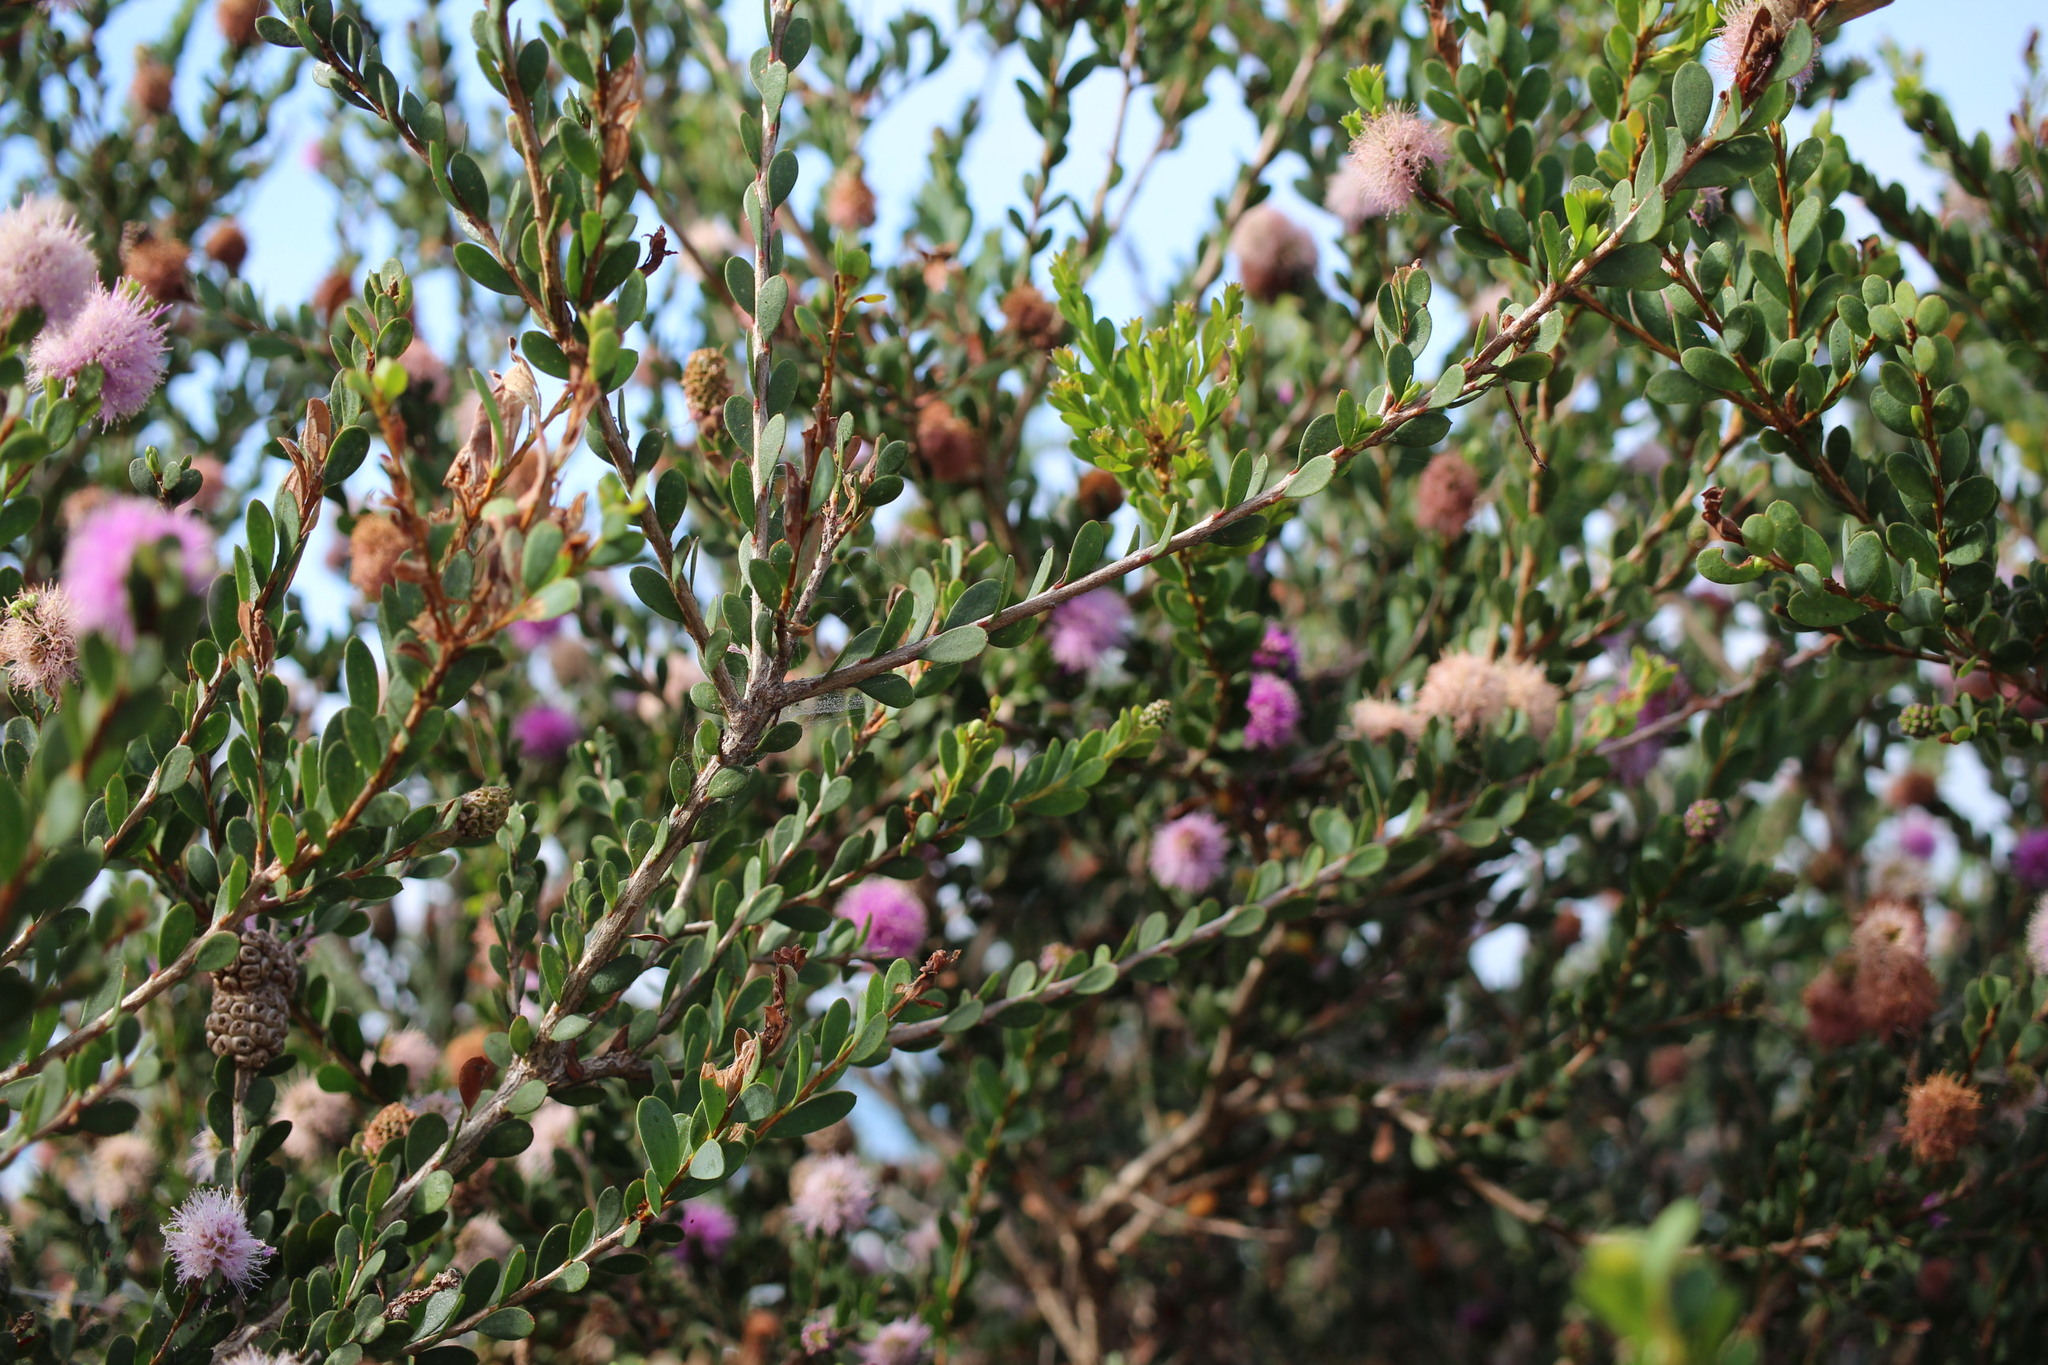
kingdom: Plantae
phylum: Tracheophyta
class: Magnoliopsida
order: Myrtales
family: Myrtaceae
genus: Melaleuca
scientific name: Melaleuca nesophila
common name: Mauve honey myrtle
